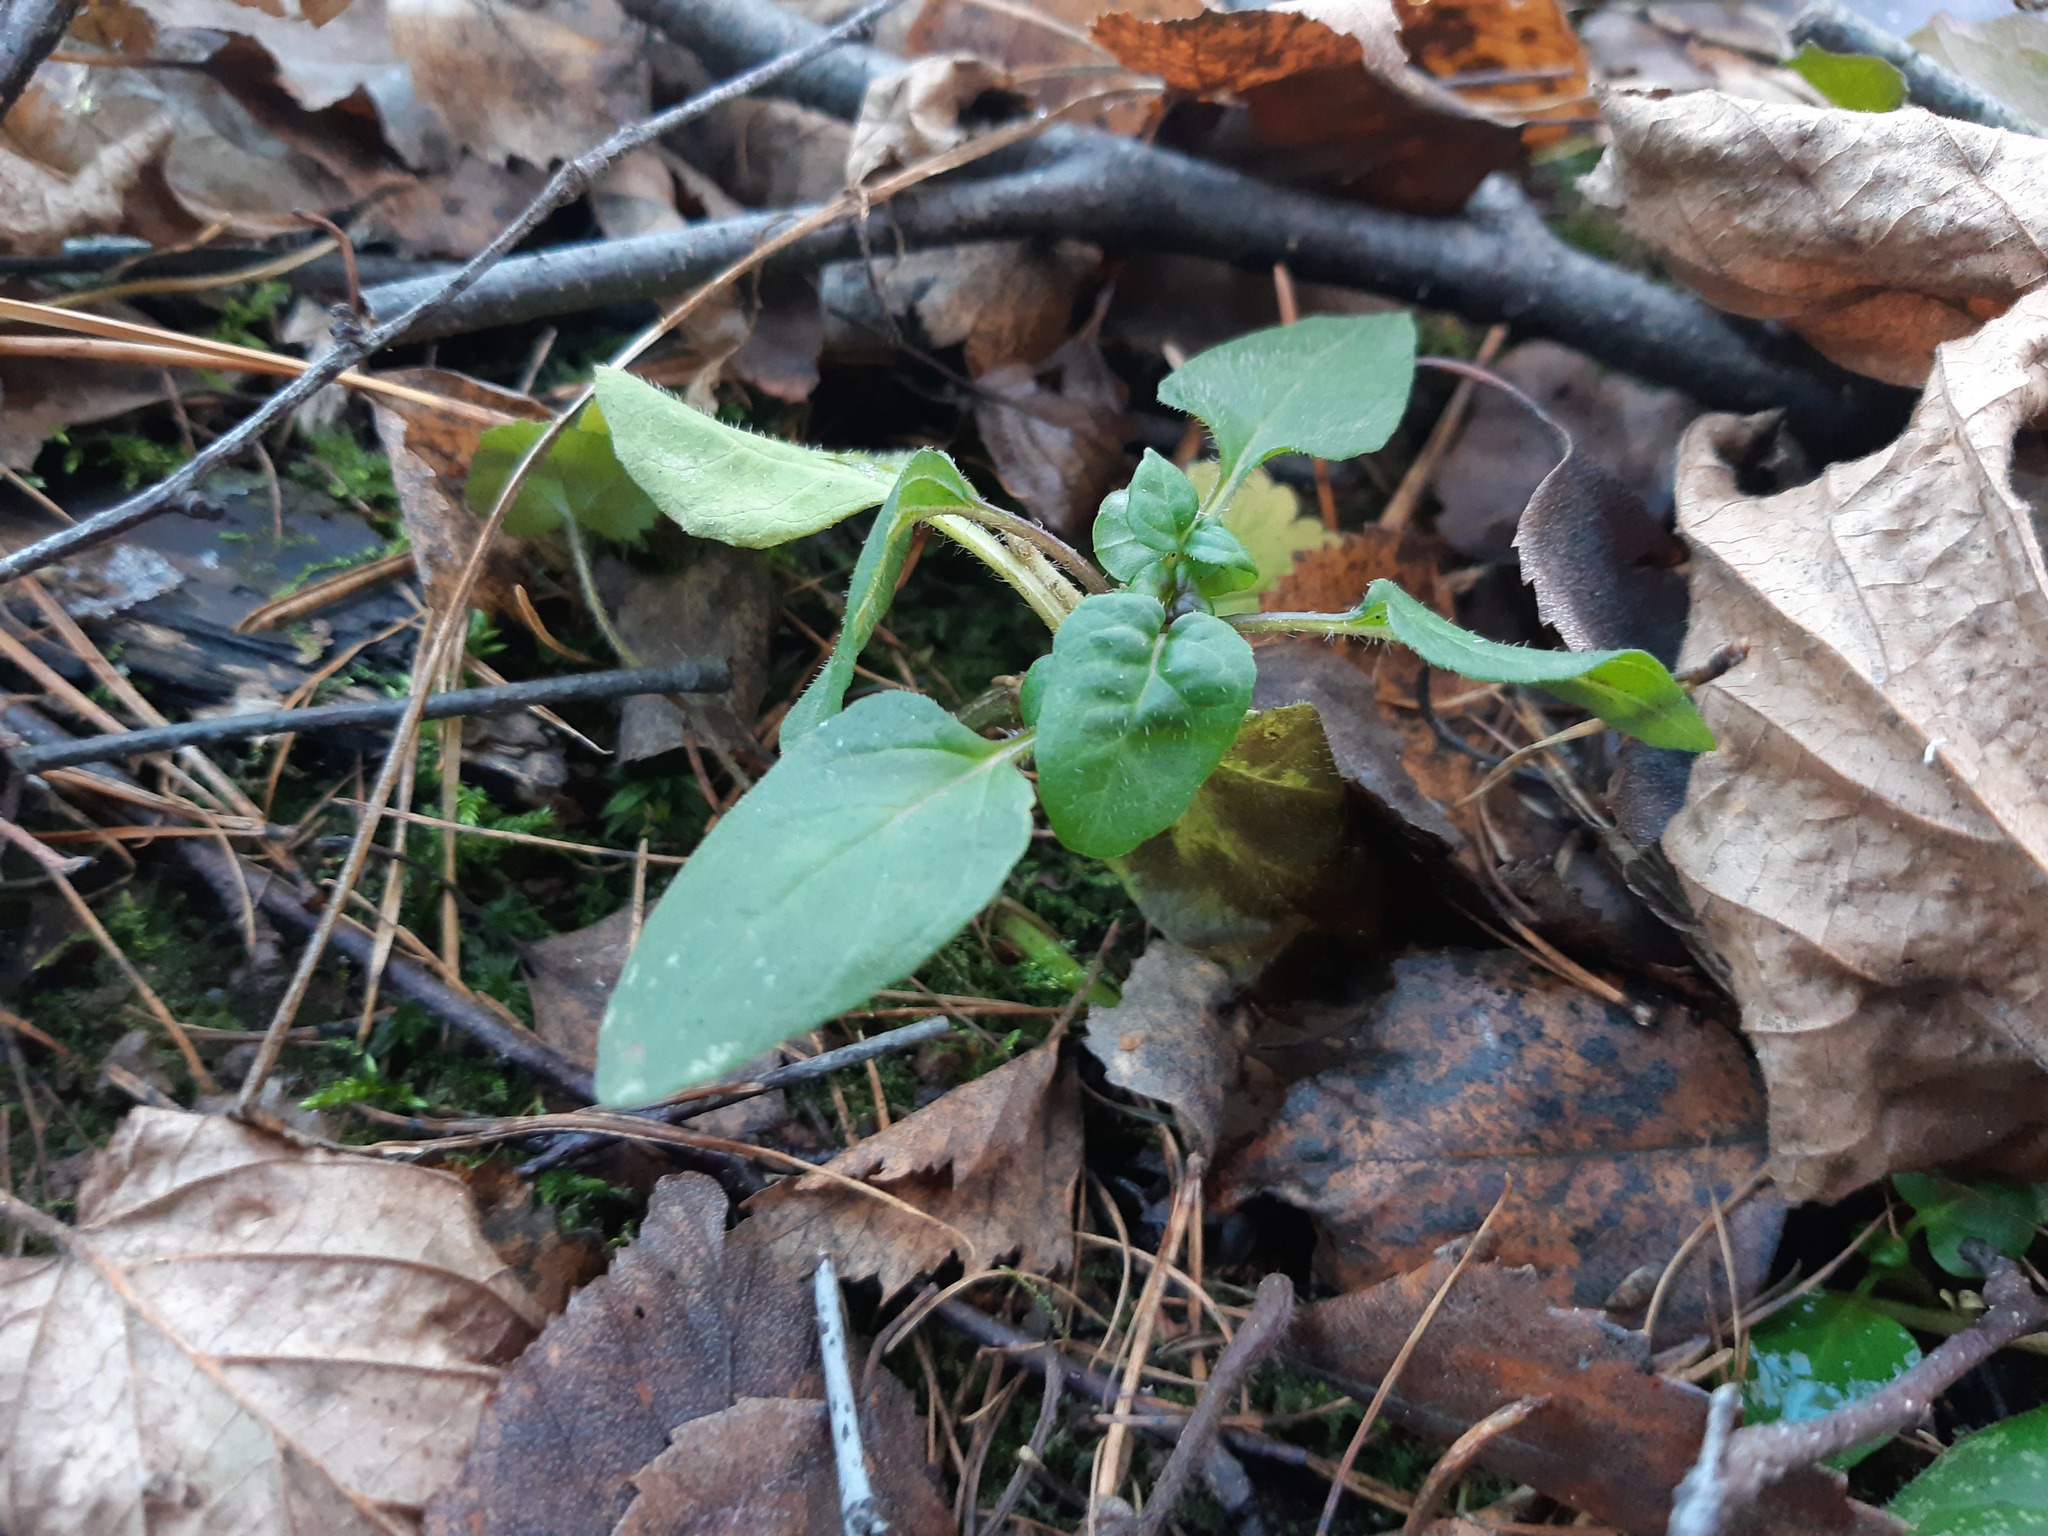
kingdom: Plantae
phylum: Tracheophyta
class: Magnoliopsida
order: Lamiales
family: Lamiaceae
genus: Prunella
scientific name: Prunella vulgaris
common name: Heal-all
